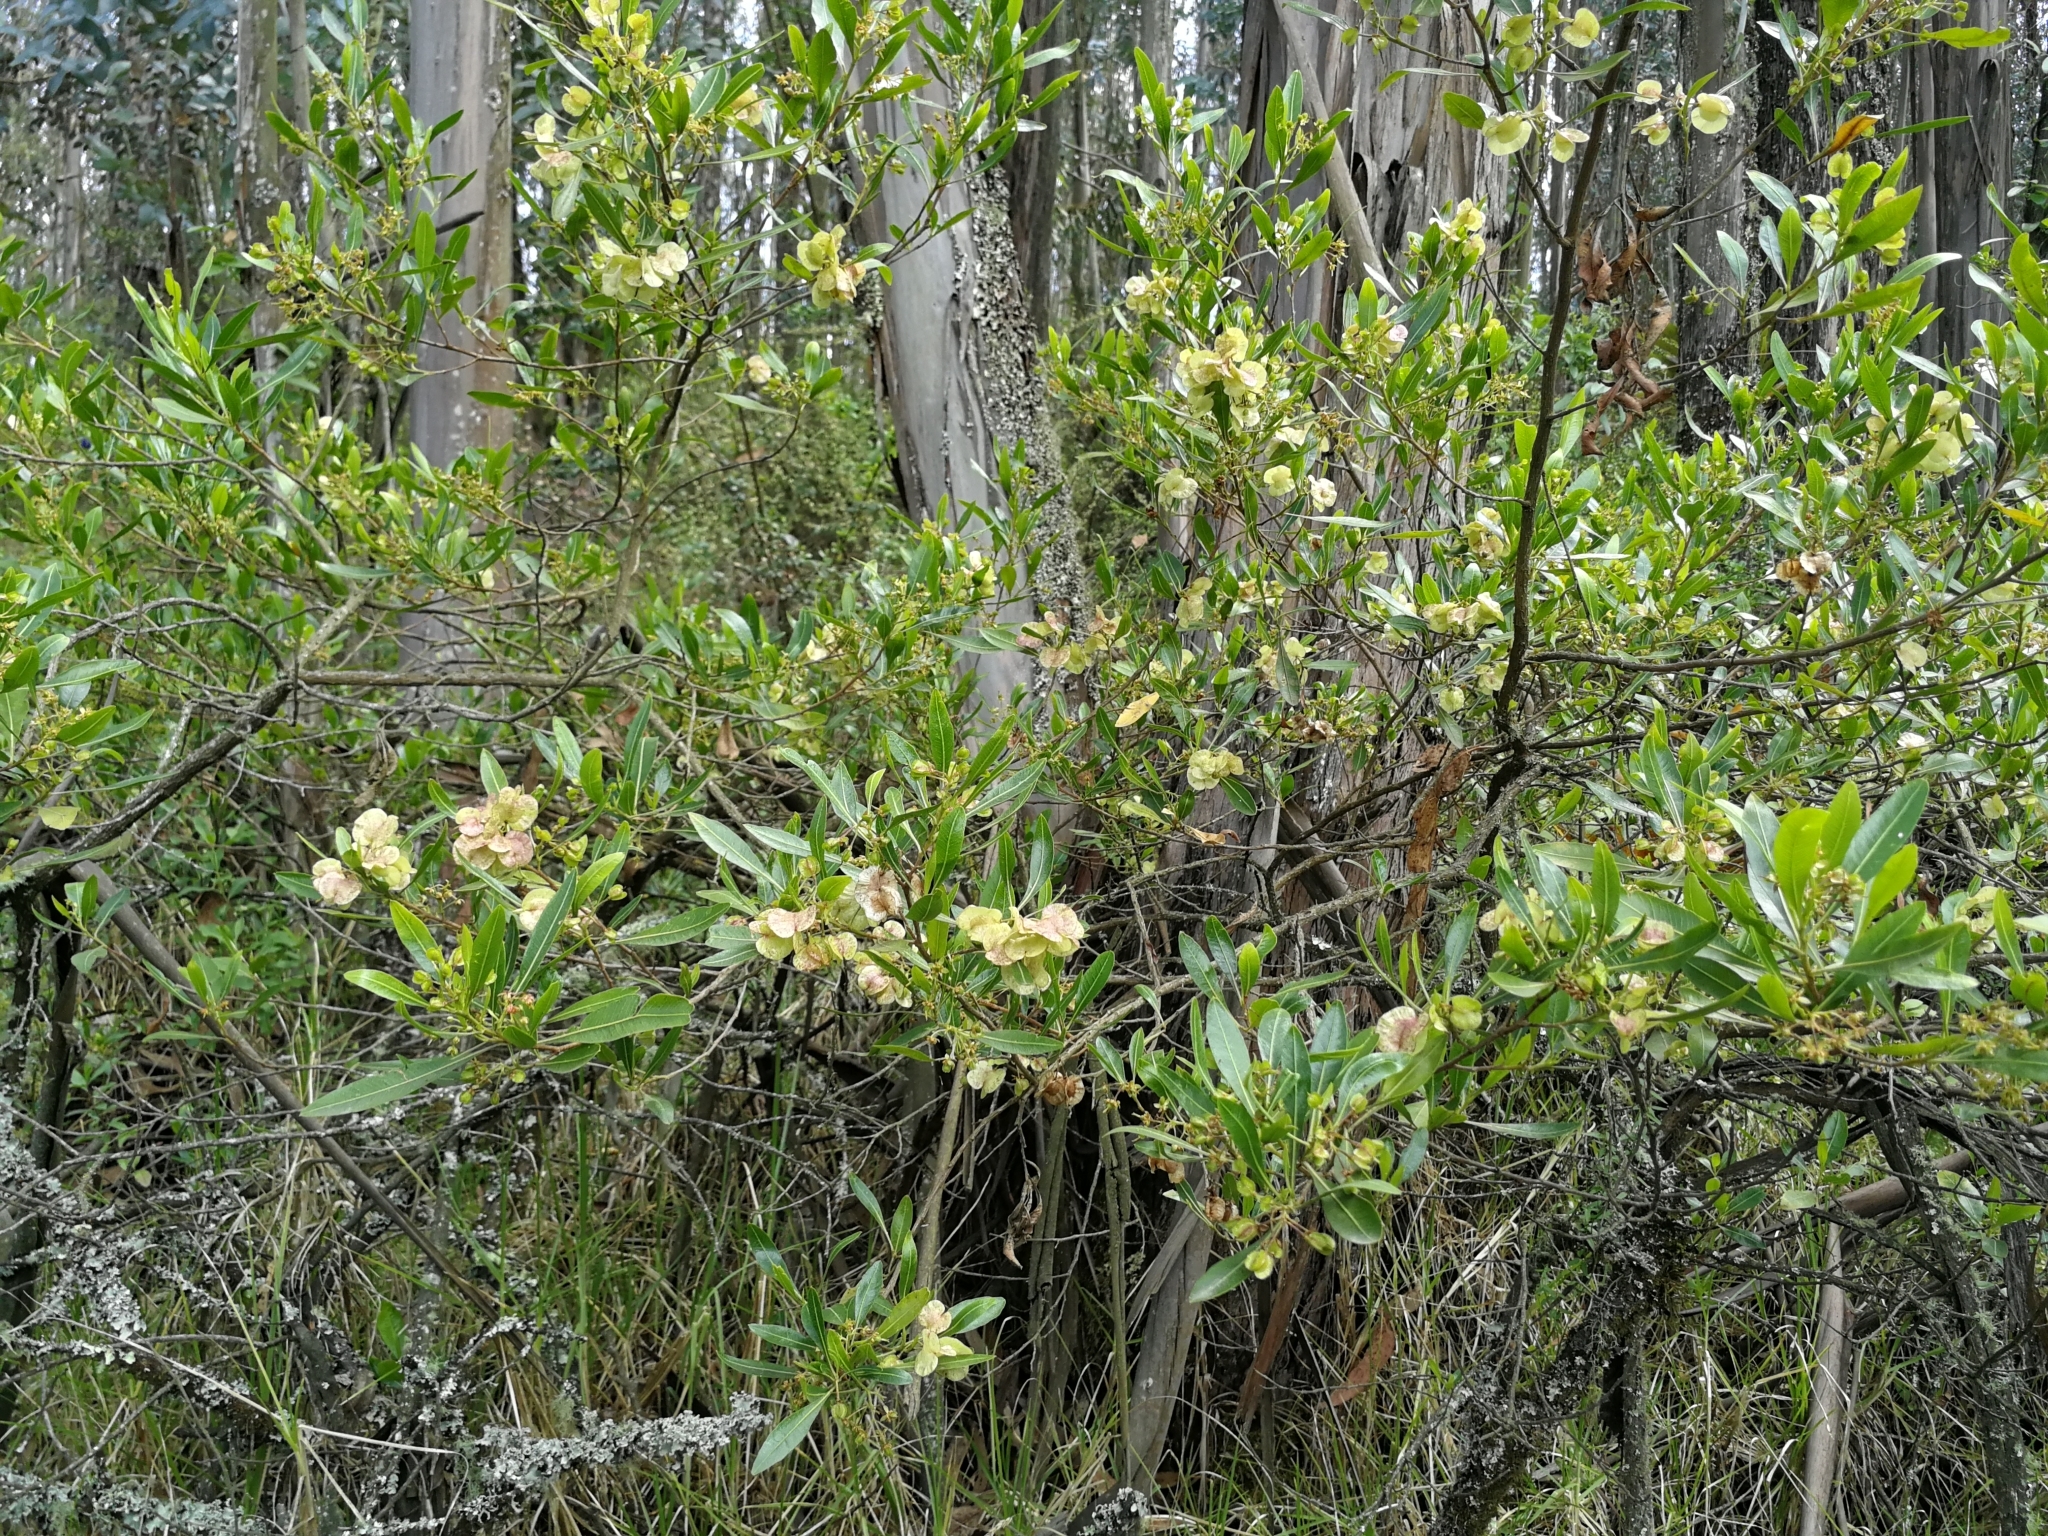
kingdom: Plantae
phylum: Tracheophyta
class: Magnoliopsida
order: Sapindales
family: Sapindaceae
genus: Dodonaea
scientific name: Dodonaea viscosa
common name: Hopbush
